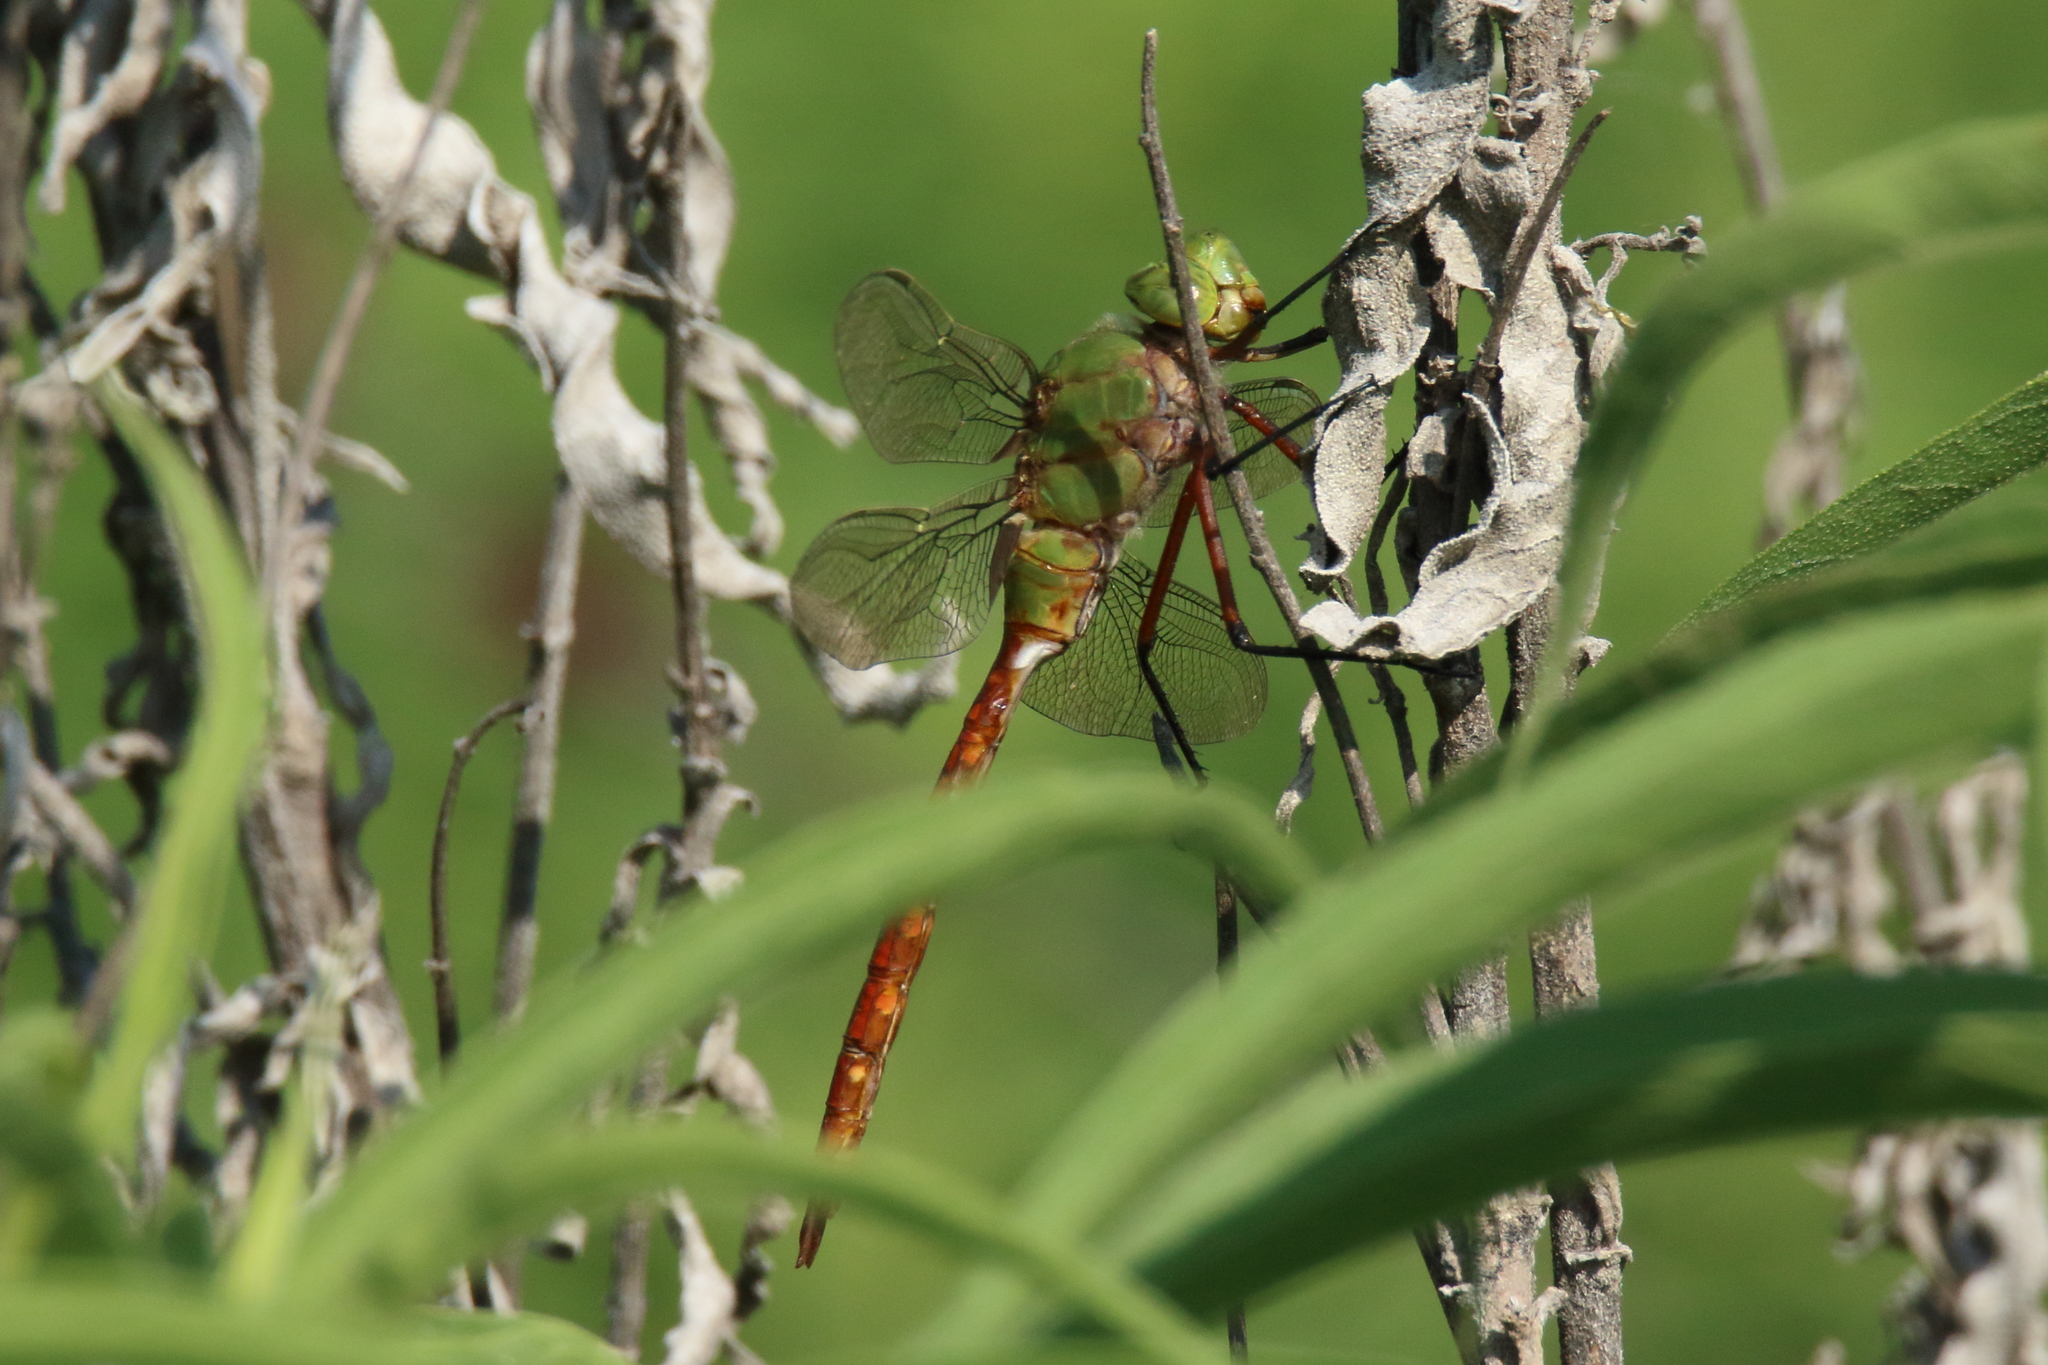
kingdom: Animalia
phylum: Arthropoda
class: Insecta
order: Odonata
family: Aeshnidae
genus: Anax
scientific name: Anax longipes
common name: Comet darner
